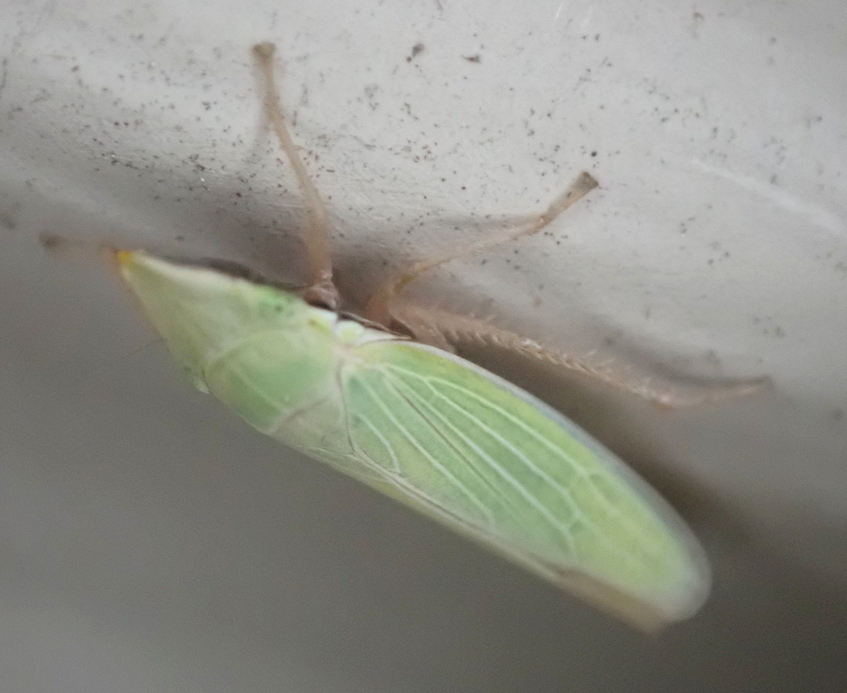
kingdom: Animalia
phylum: Arthropoda
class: Insecta
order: Hemiptera
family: Cicadellidae
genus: Draeculacephala
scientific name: Draeculacephala antica
